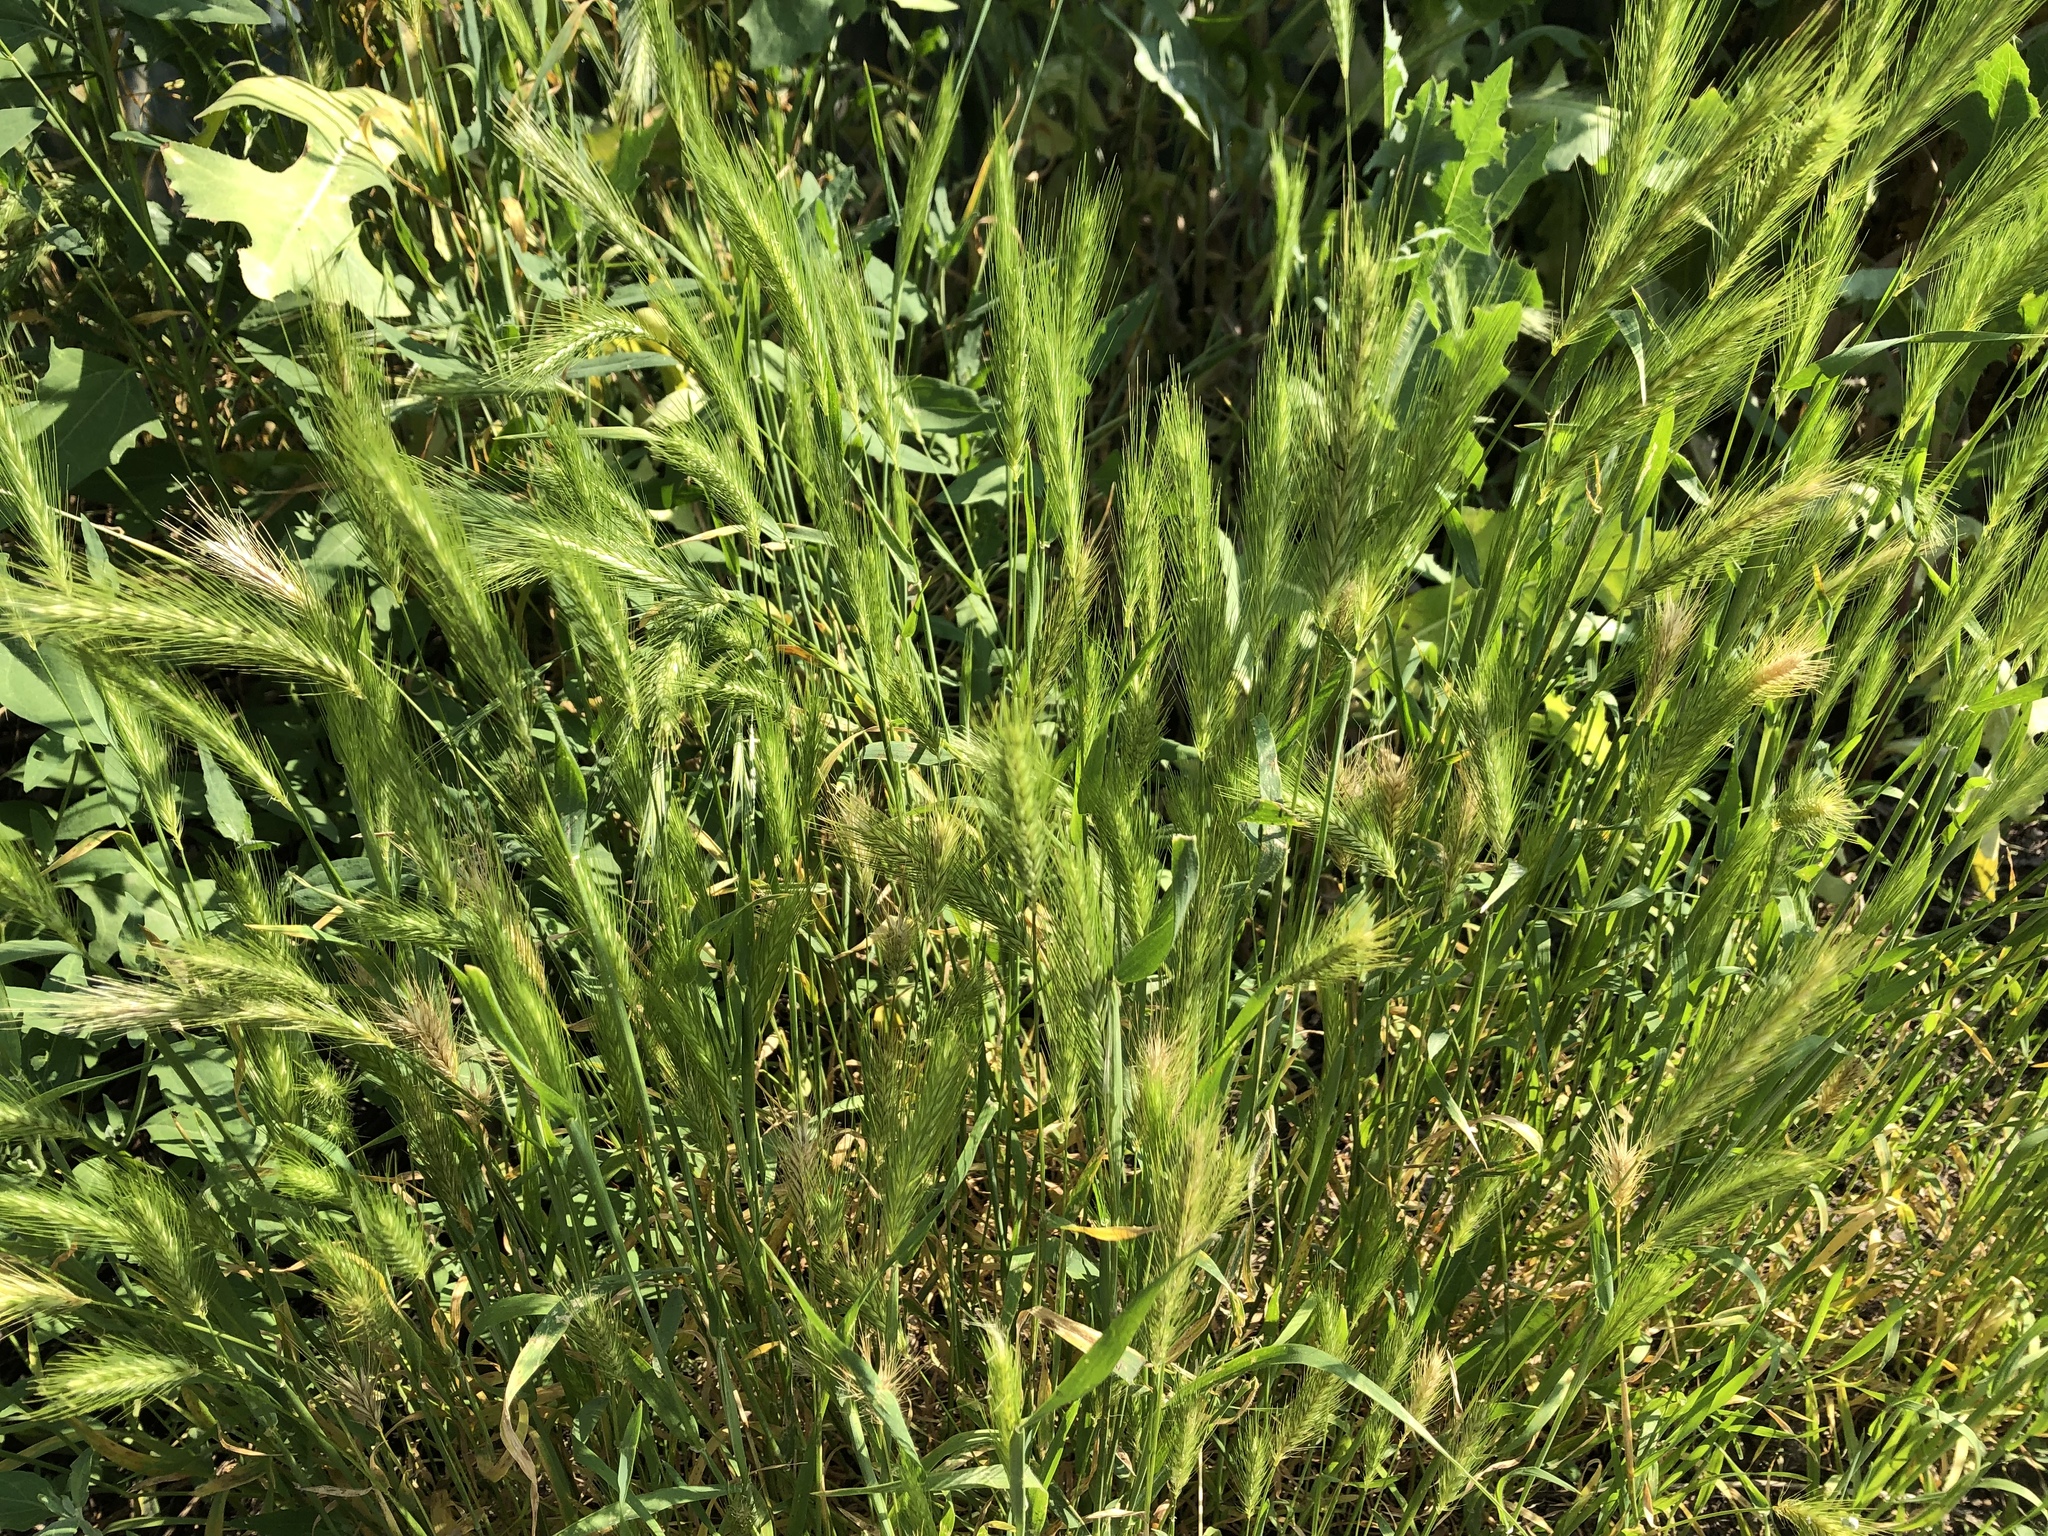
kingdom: Plantae
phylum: Tracheophyta
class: Liliopsida
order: Poales
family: Poaceae
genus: Hordeum
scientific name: Hordeum murinum
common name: Wall barley
